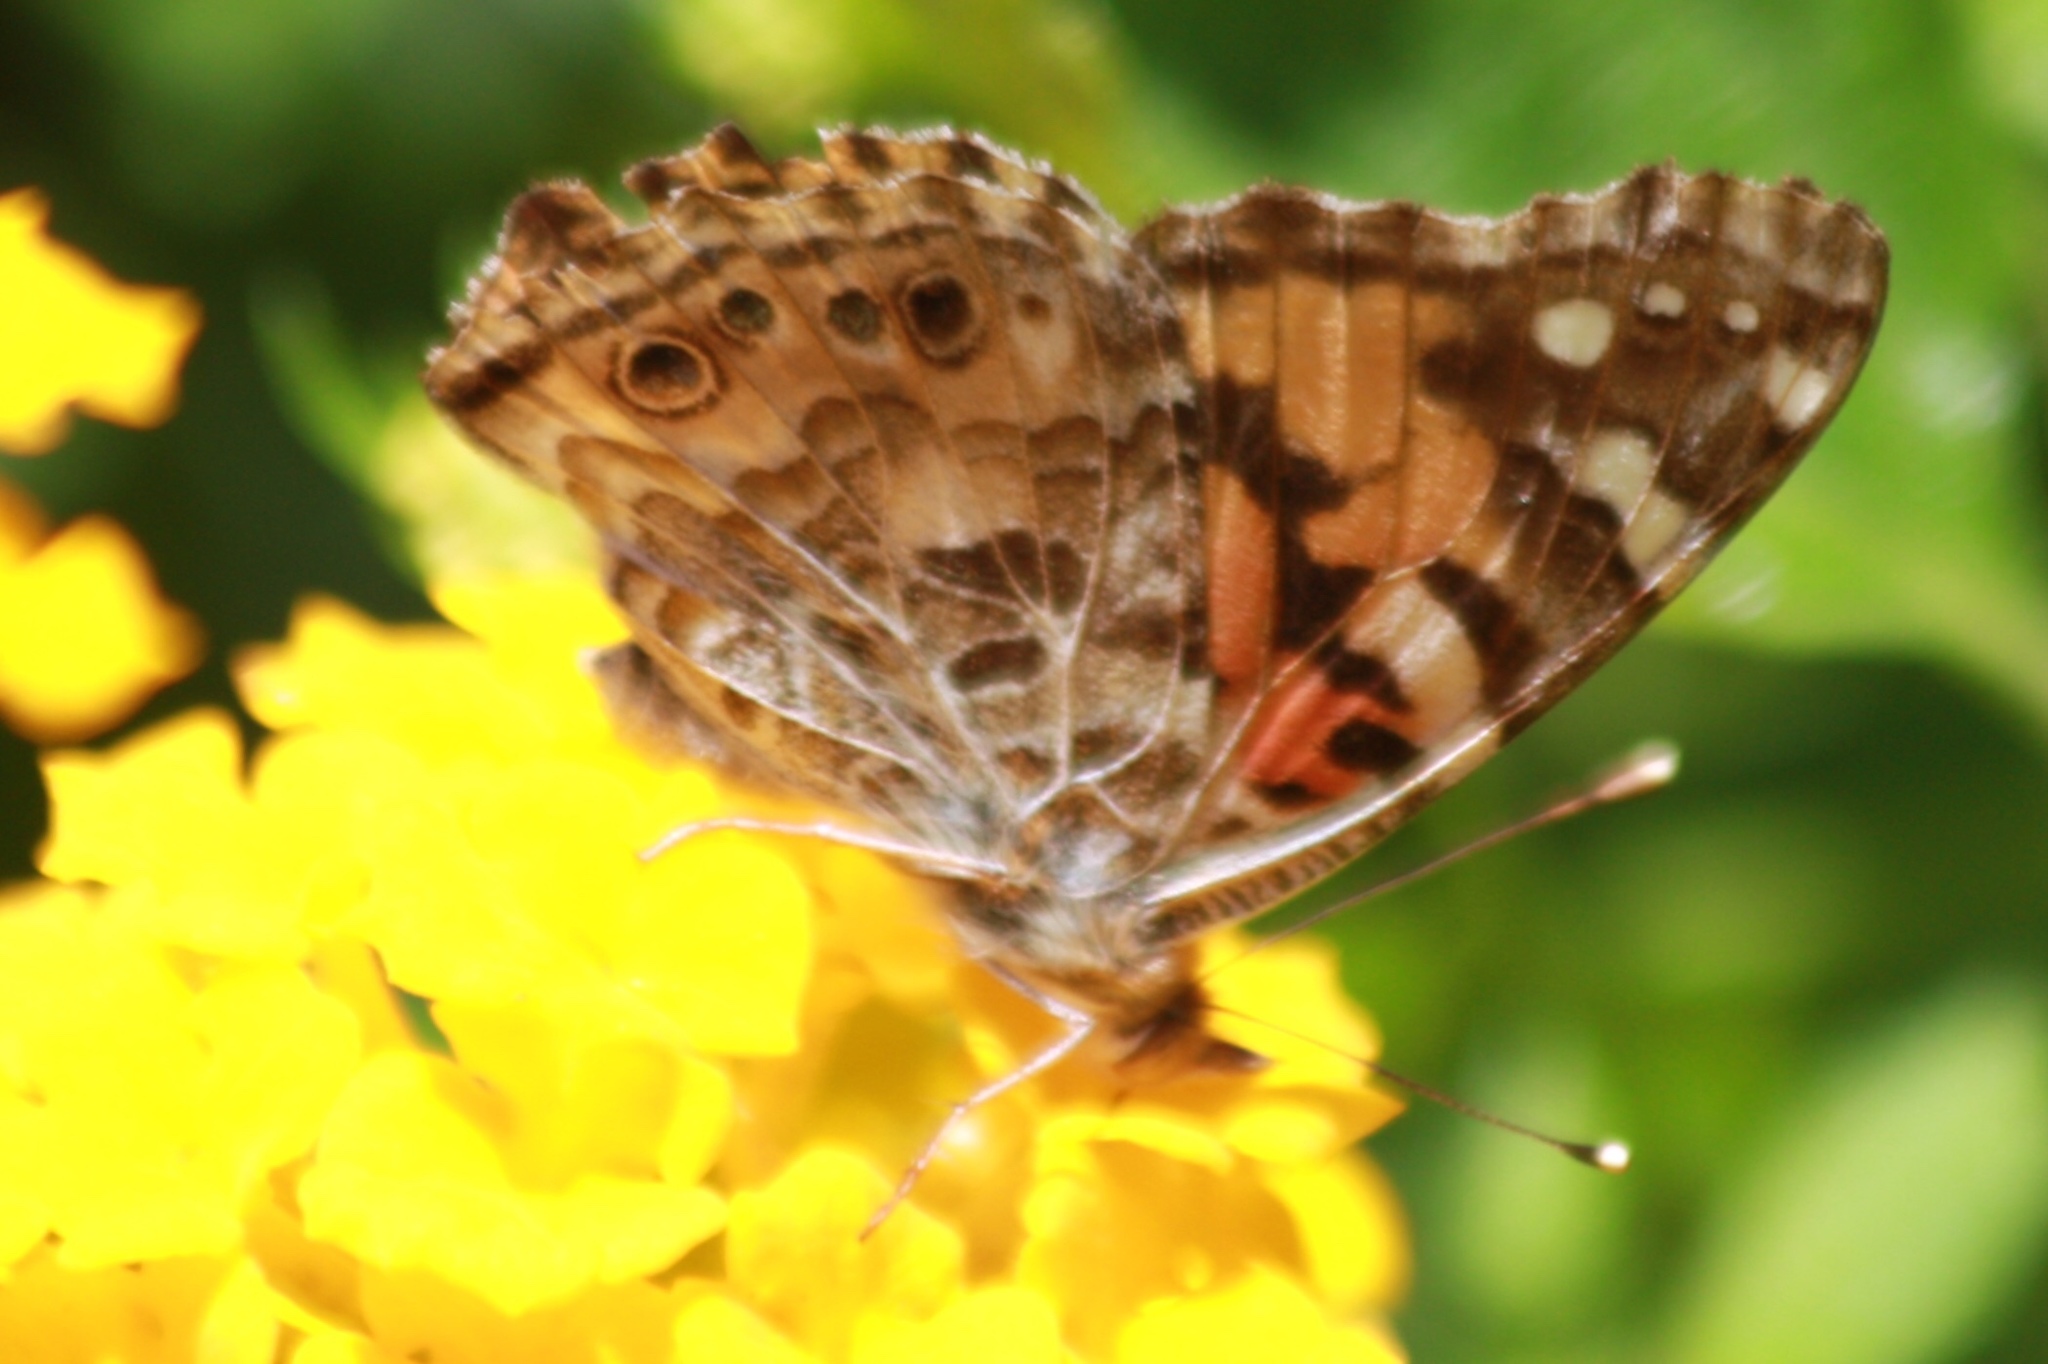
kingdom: Animalia
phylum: Arthropoda
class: Insecta
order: Lepidoptera
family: Nymphalidae
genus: Vanessa
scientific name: Vanessa cardui
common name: Painted lady
